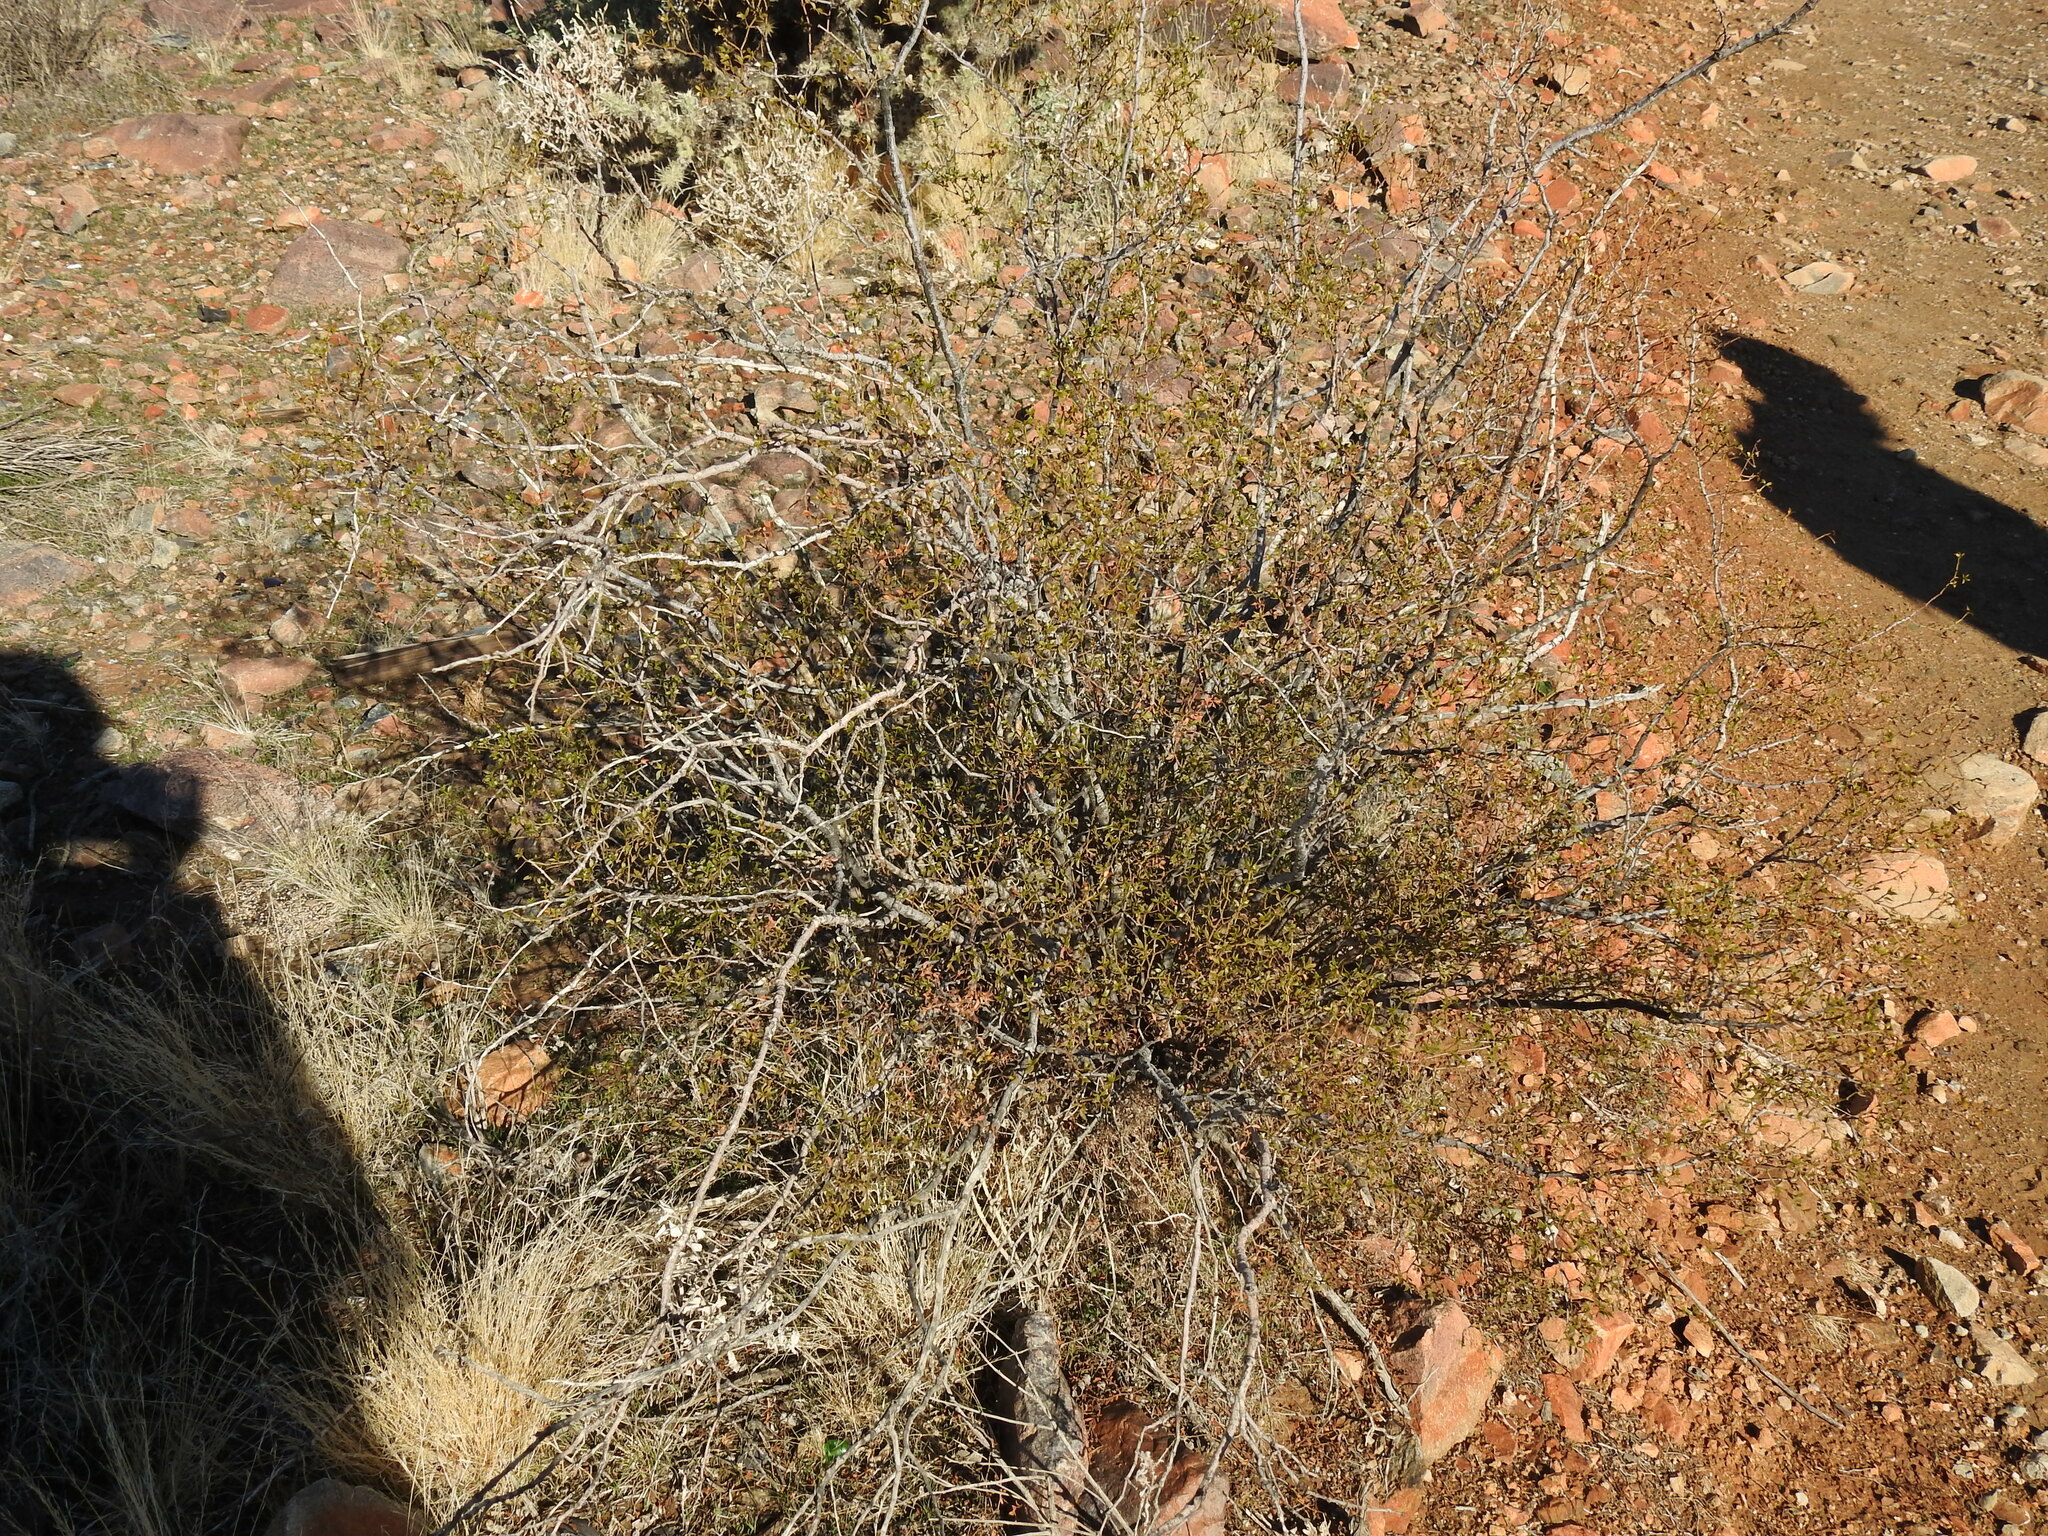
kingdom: Plantae
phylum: Tracheophyta
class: Magnoliopsida
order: Zygophyllales
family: Zygophyllaceae
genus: Larrea
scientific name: Larrea tridentata
